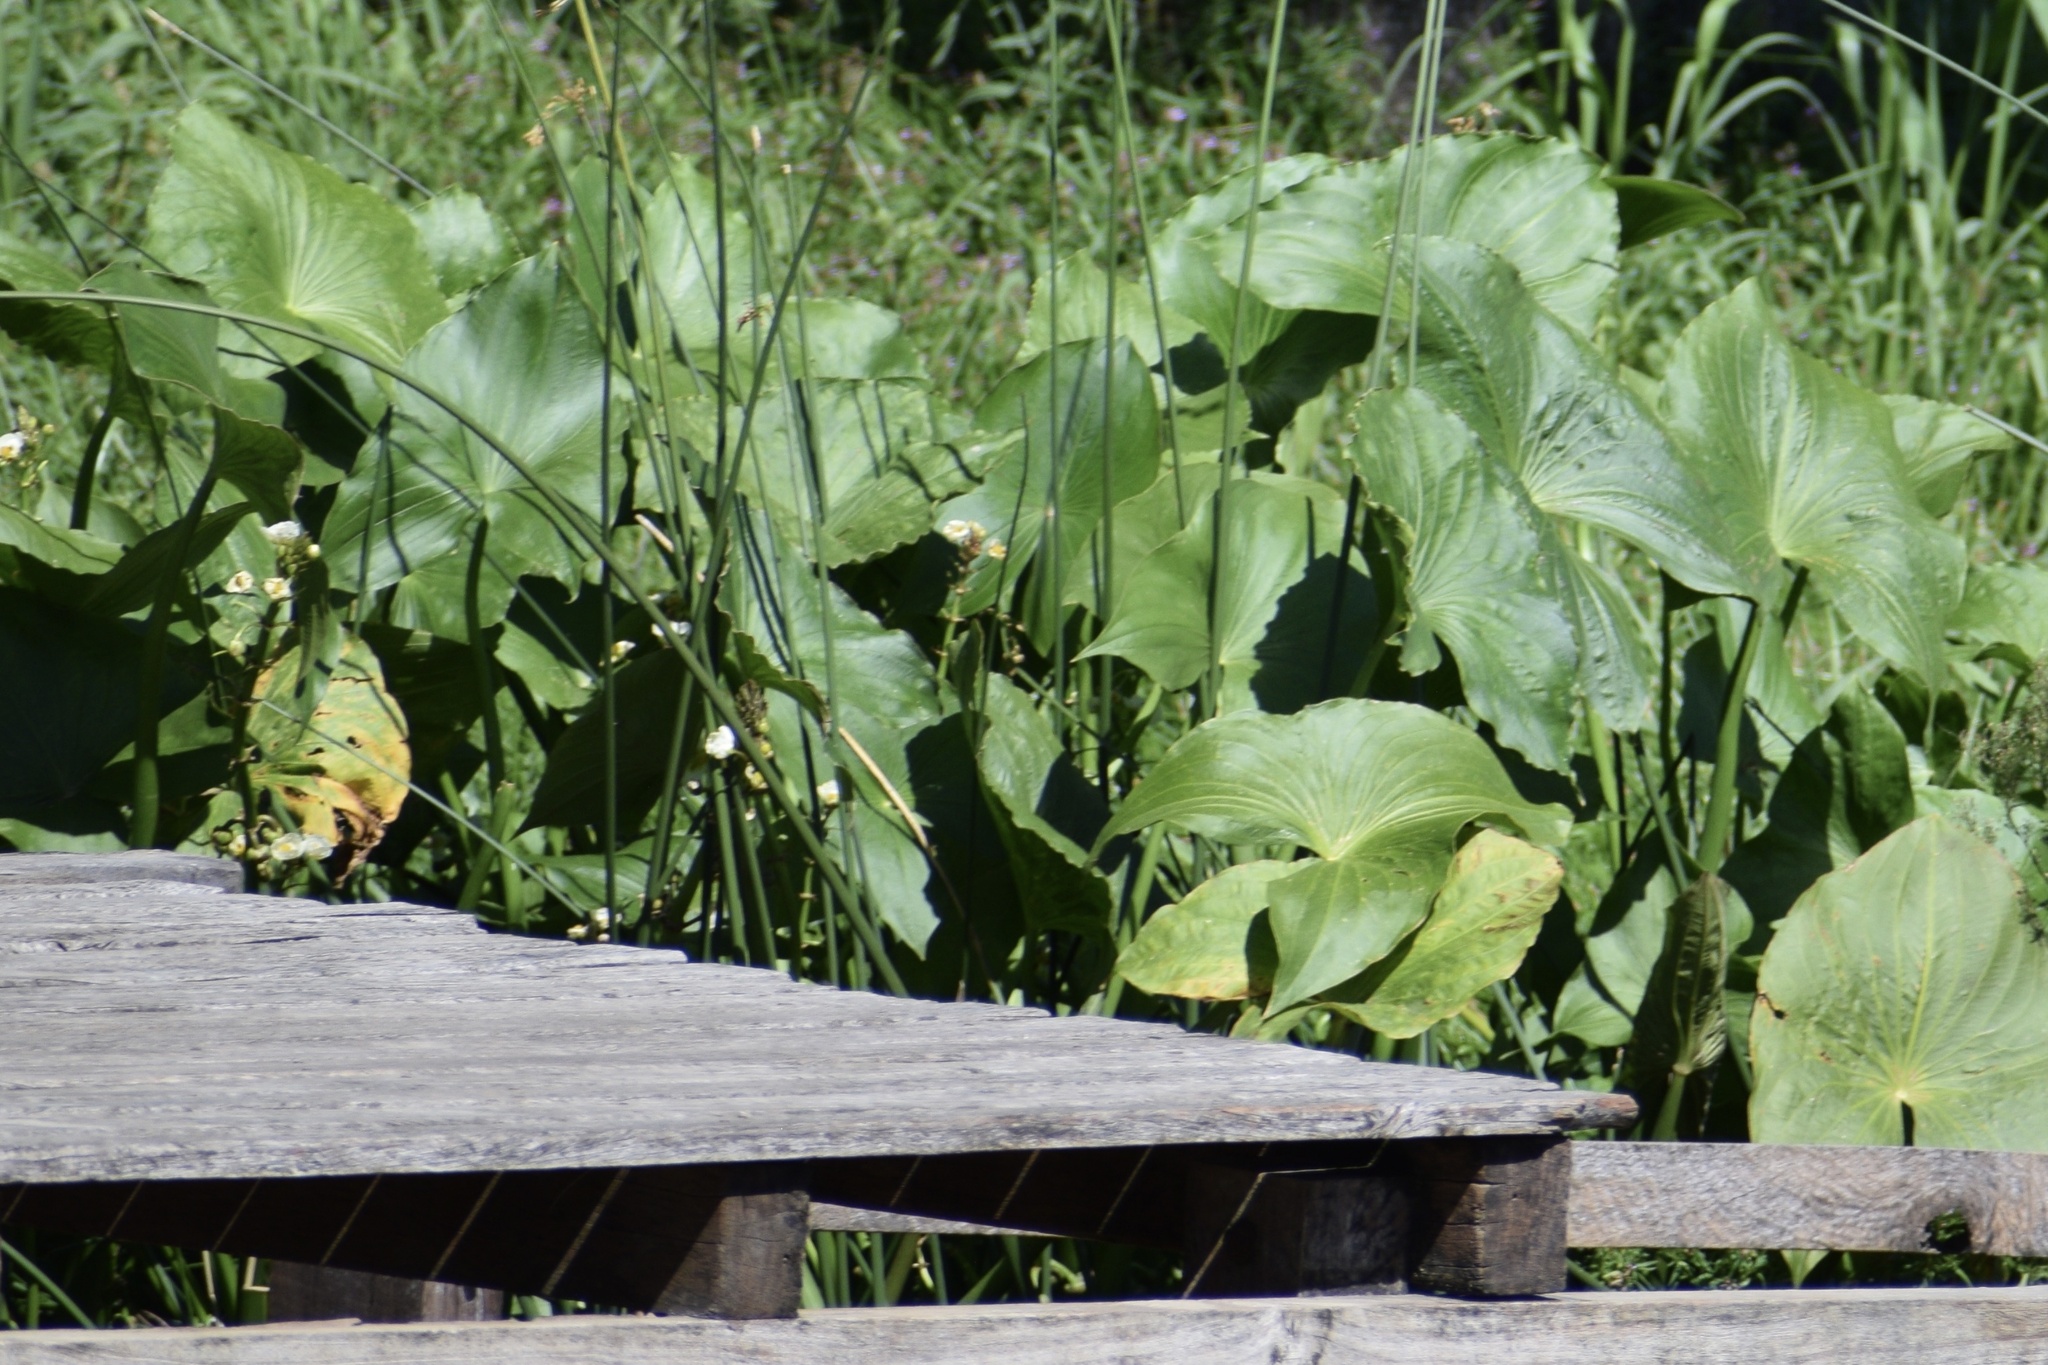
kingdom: Plantae
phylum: Tracheophyta
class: Liliopsida
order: Alismatales
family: Alismataceae
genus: Sagittaria
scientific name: Sagittaria montevidensis
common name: Giant arrowhead
